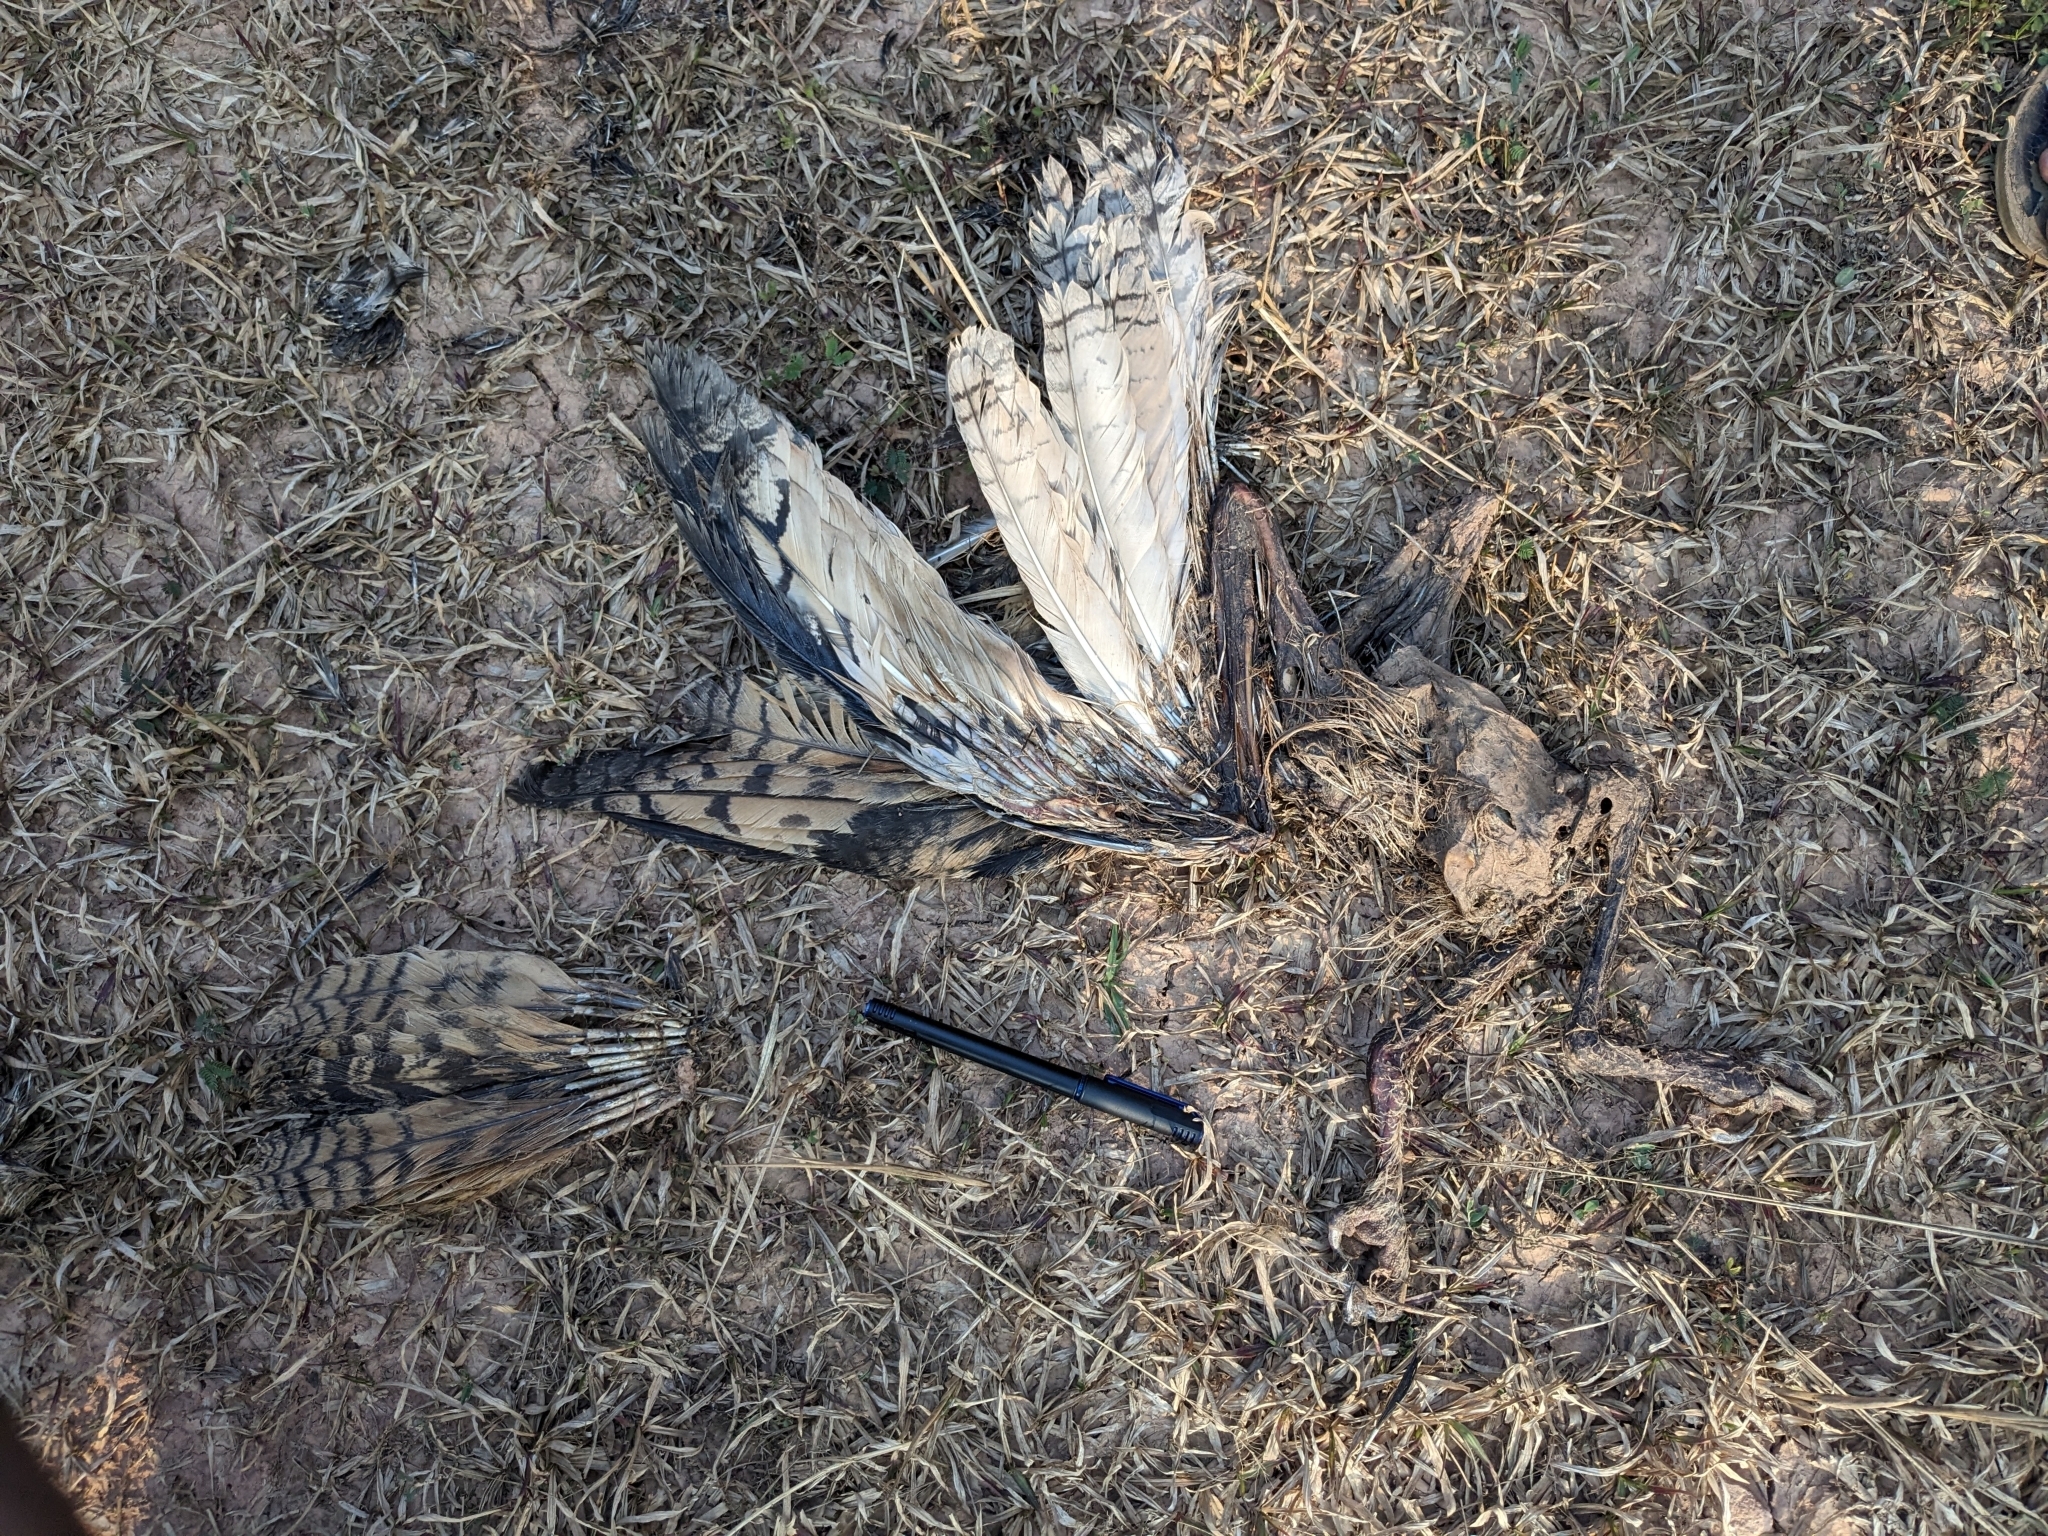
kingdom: Animalia
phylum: Chordata
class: Aves
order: Strigiformes
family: Strigidae
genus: Bubo
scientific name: Bubo bengalensis
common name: Indian eagle-owl
